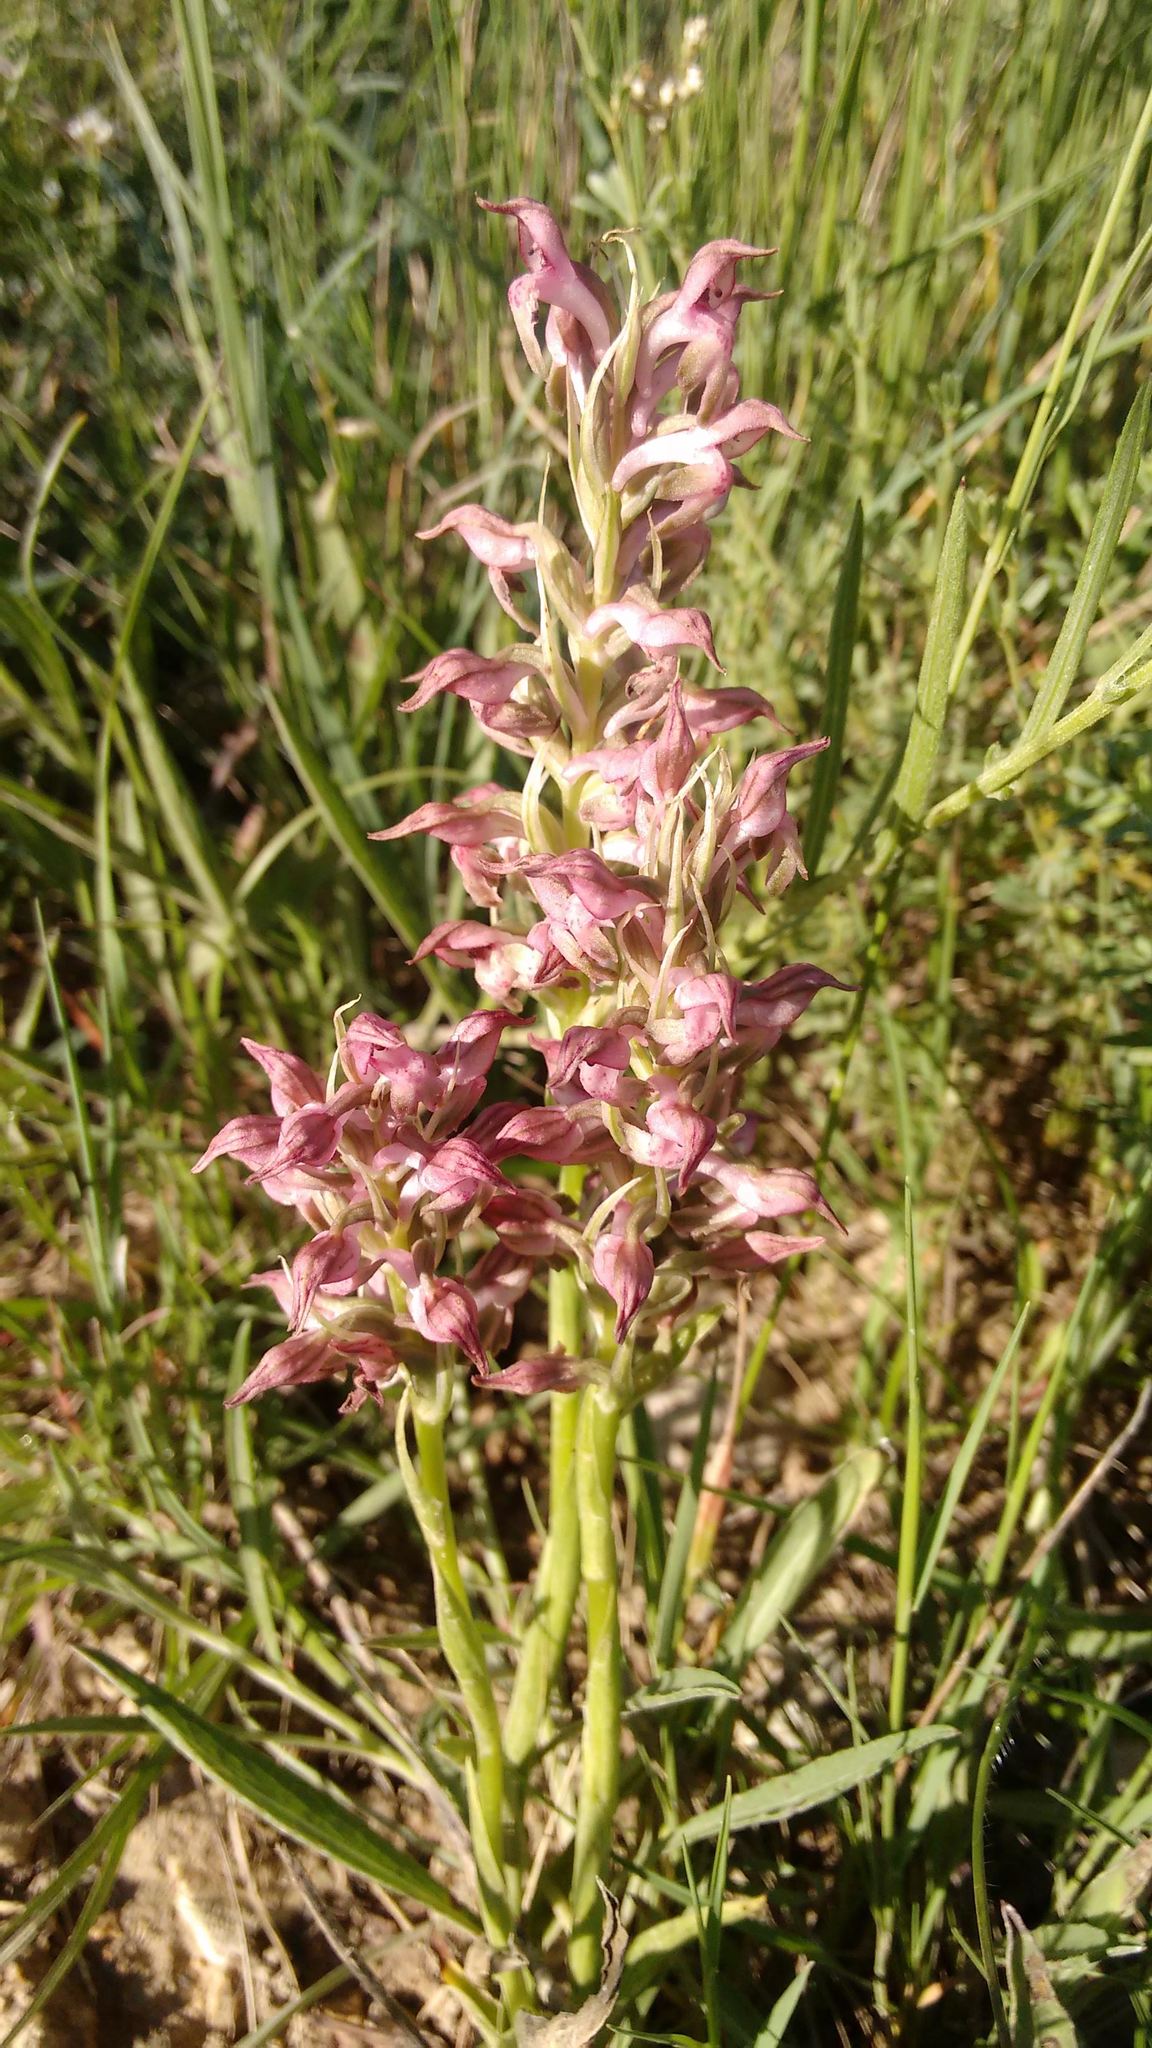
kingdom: Plantae
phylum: Tracheophyta
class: Liliopsida
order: Asparagales
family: Orchidaceae
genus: Anacamptis
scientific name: Anacamptis coriophora
